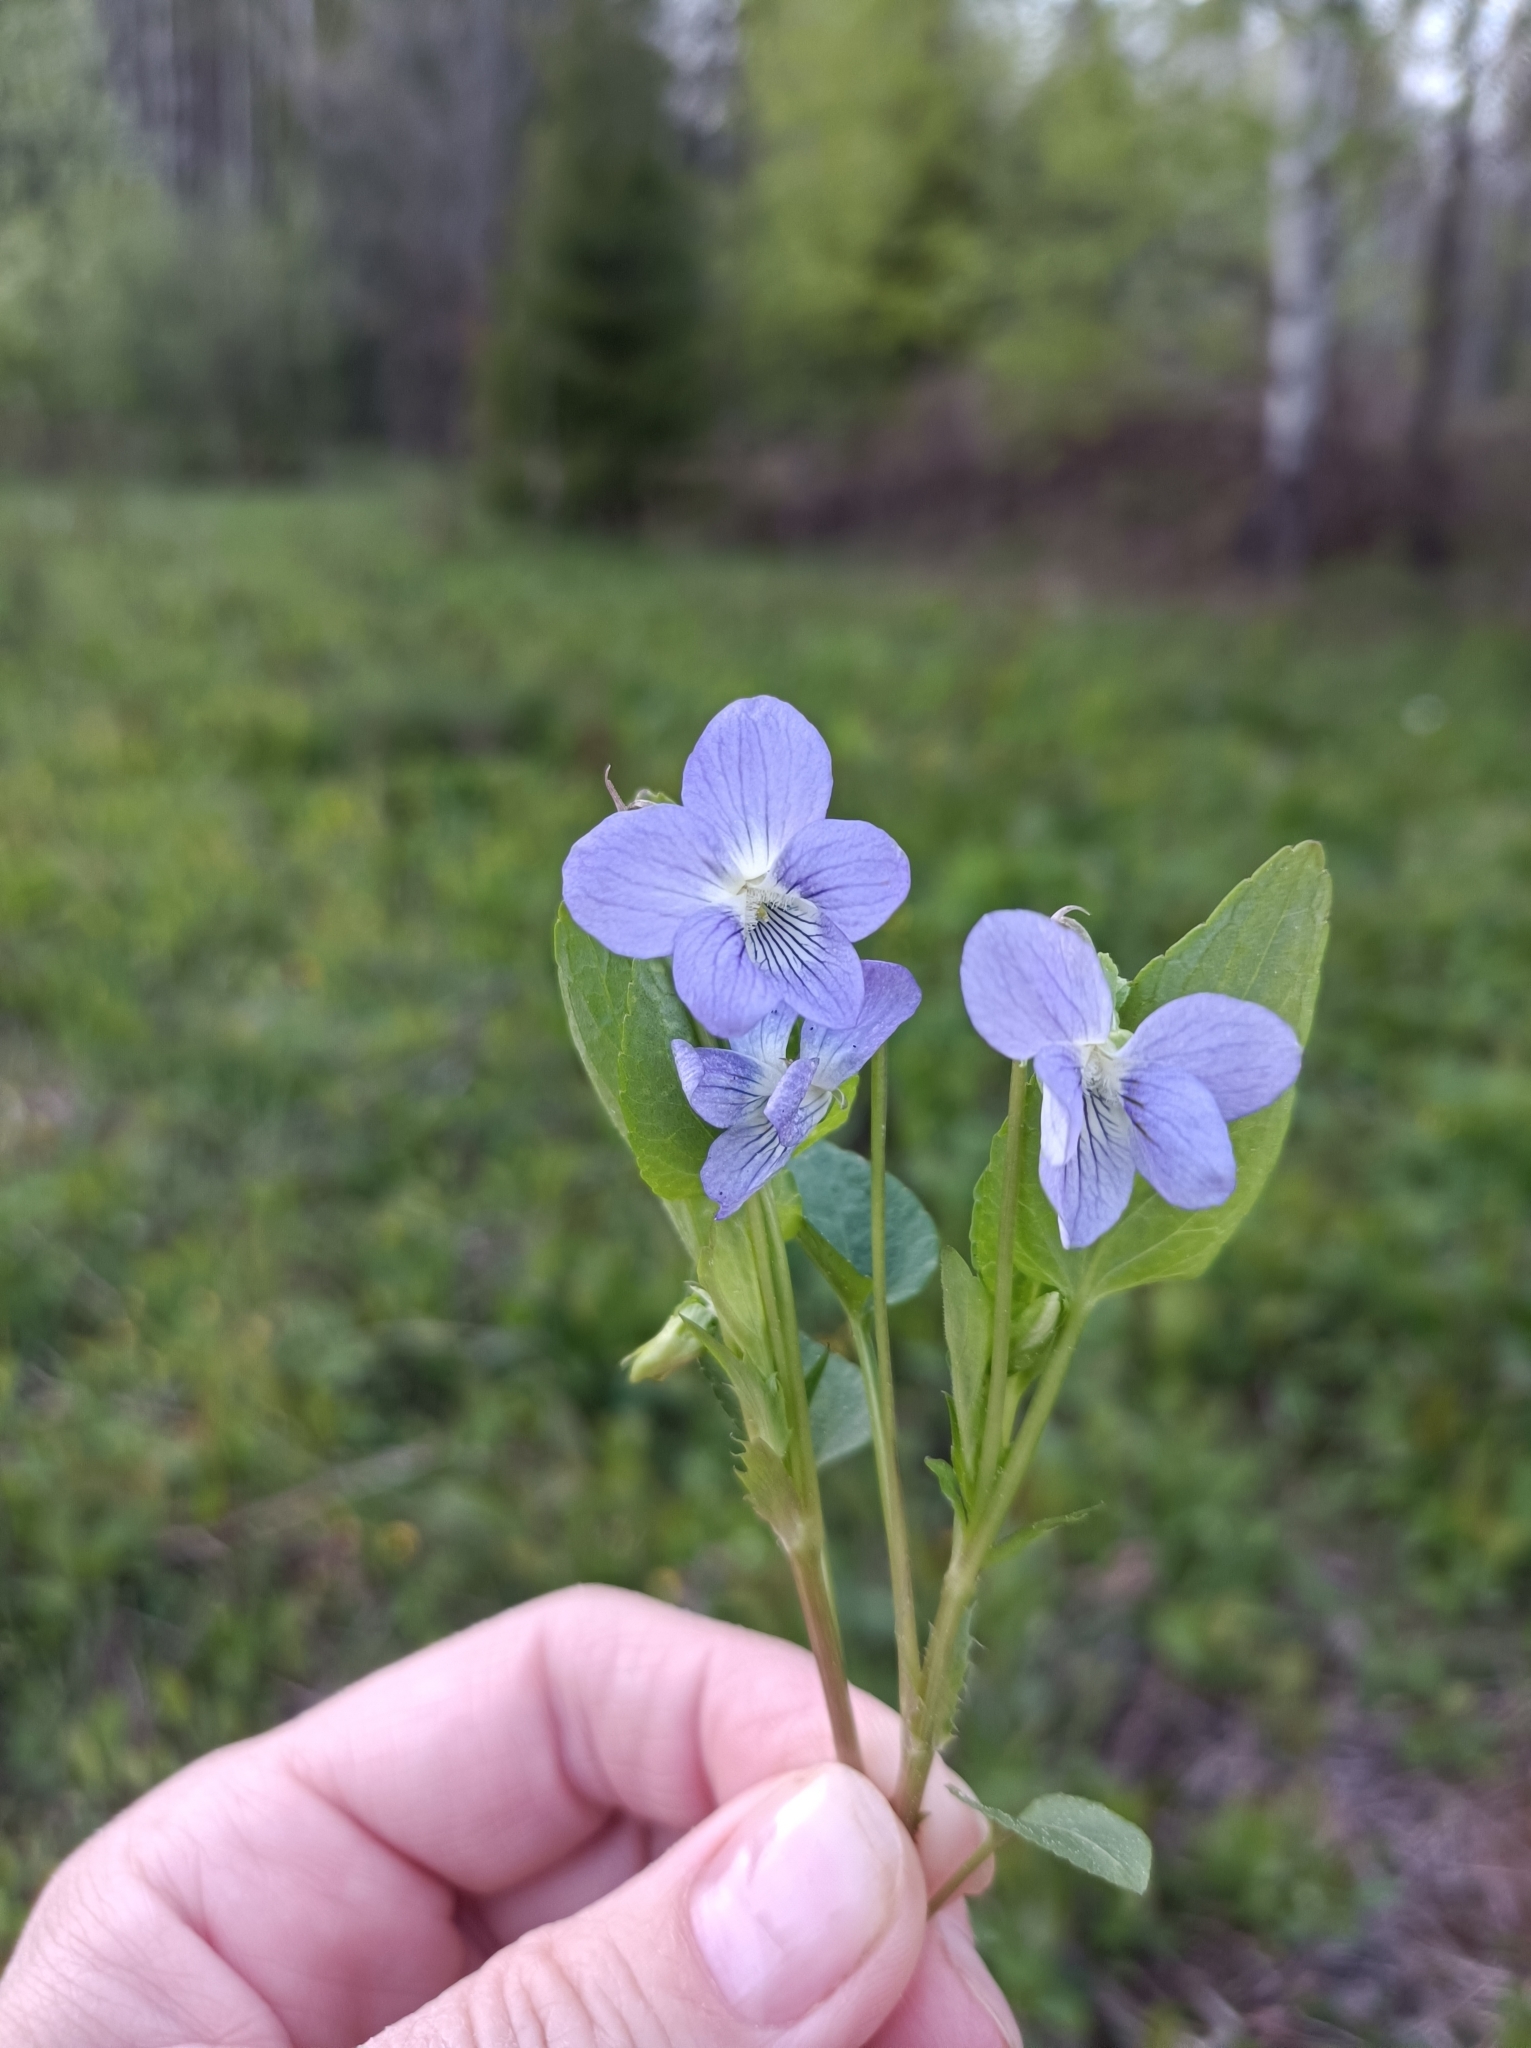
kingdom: Plantae
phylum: Tracheophyta
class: Magnoliopsida
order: Malpighiales
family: Violaceae
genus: Viola
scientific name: Viola canina
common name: Heath dog-violet
